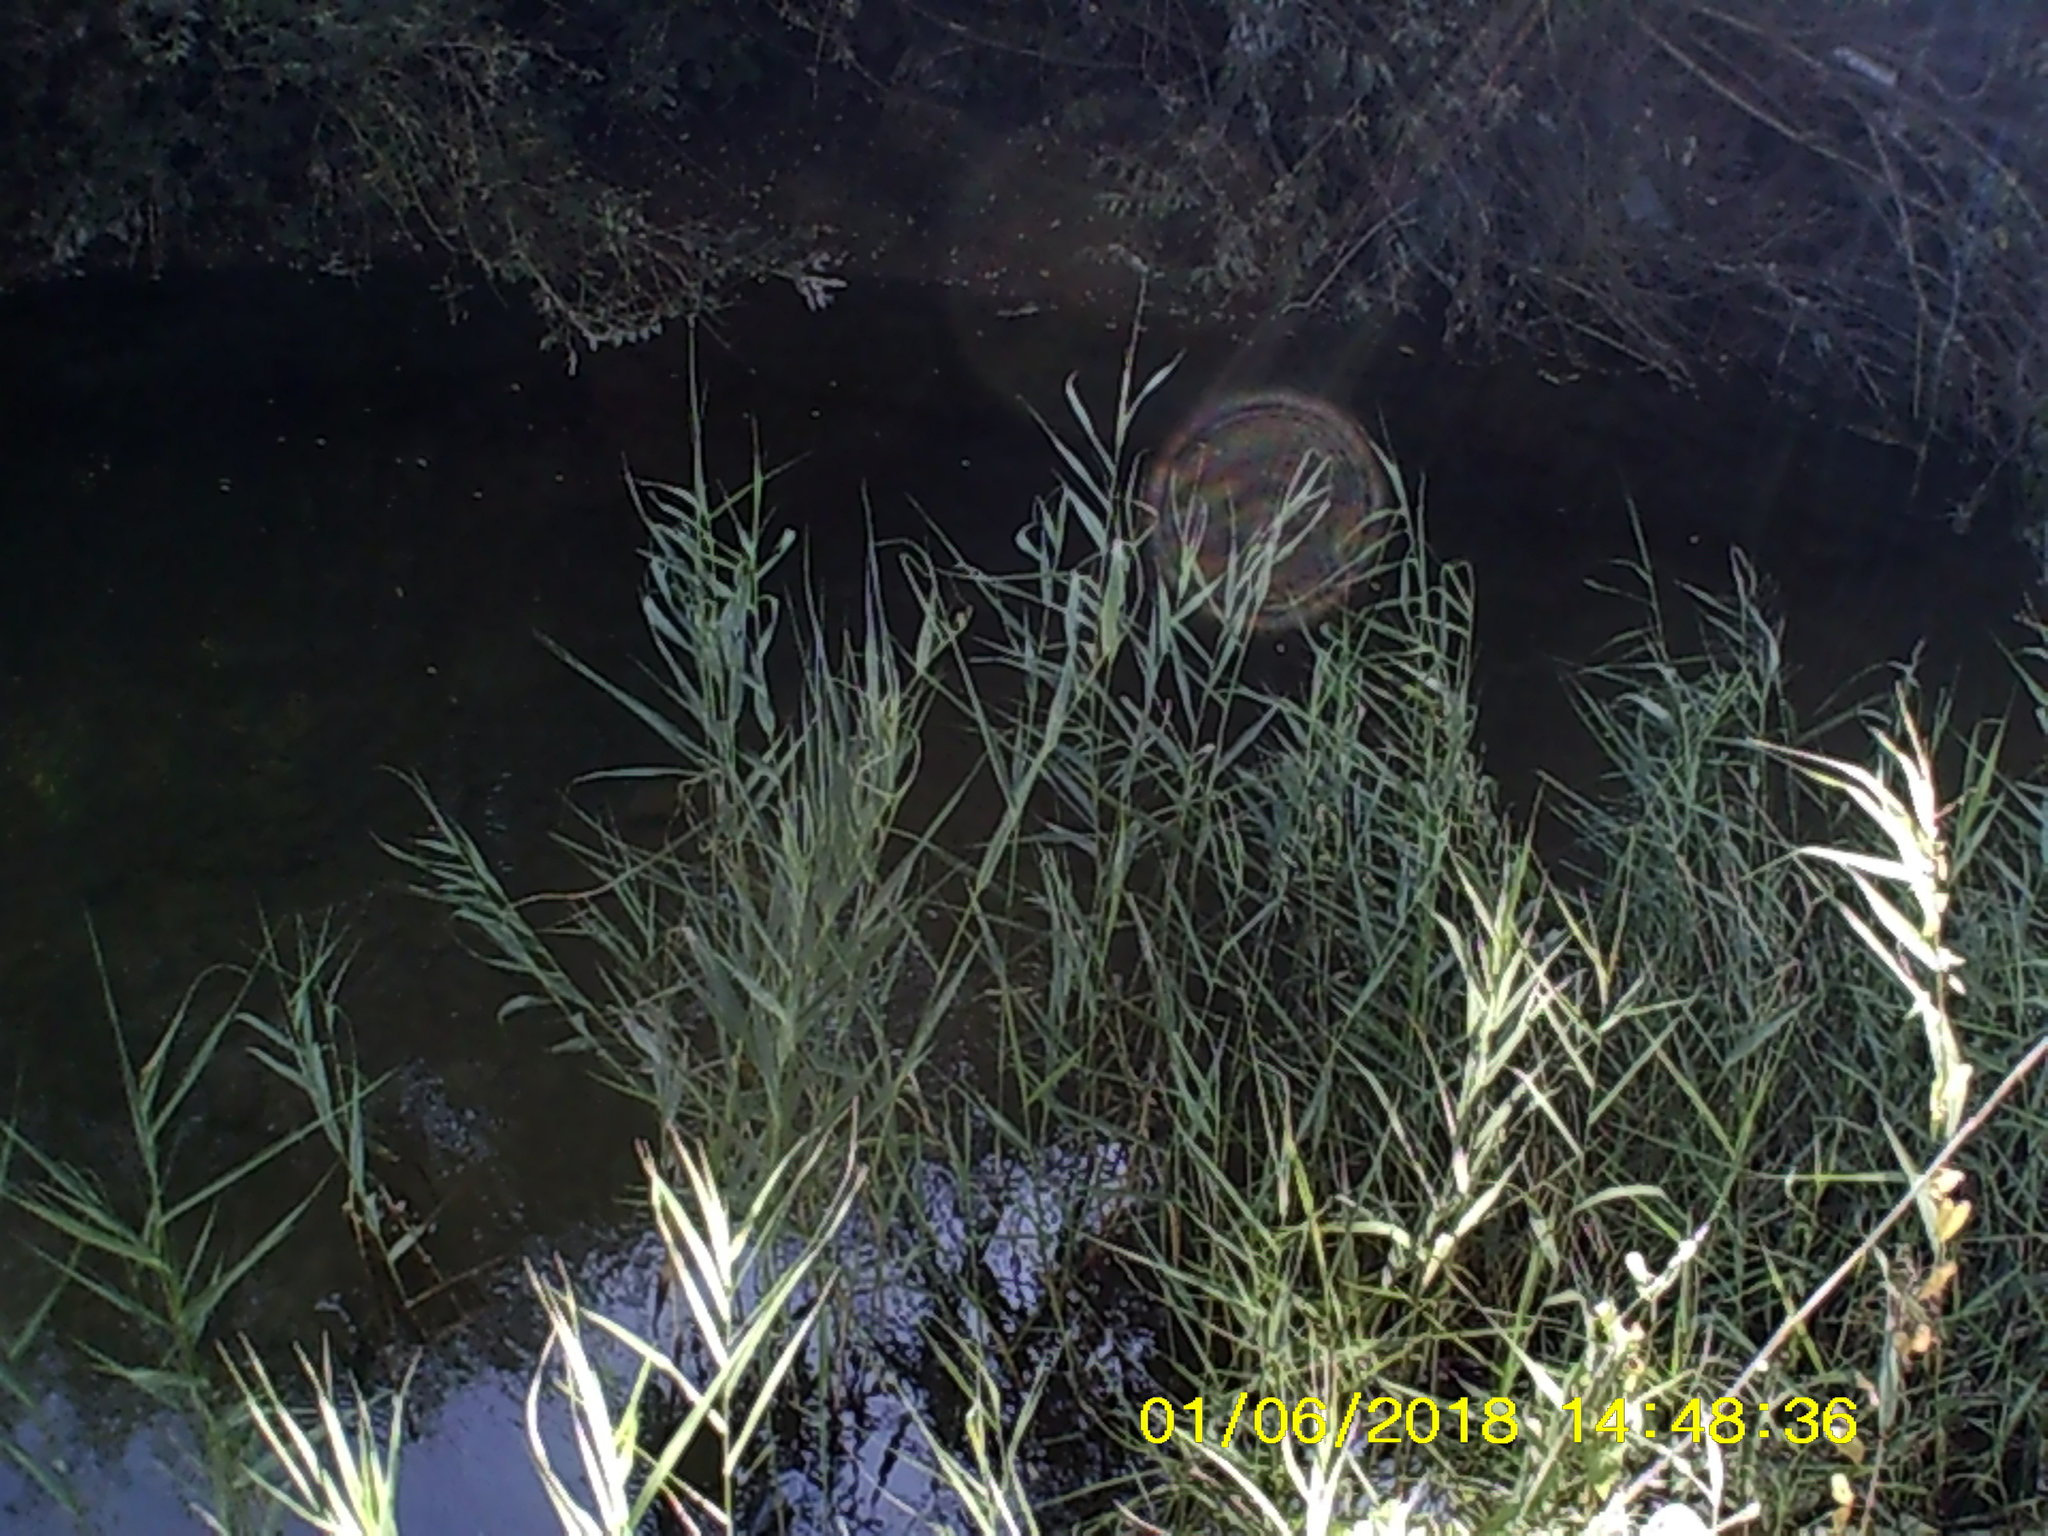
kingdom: Plantae
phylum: Tracheophyta
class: Liliopsida
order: Poales
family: Poaceae
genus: Phragmites
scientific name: Phragmites australis
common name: Common reed
